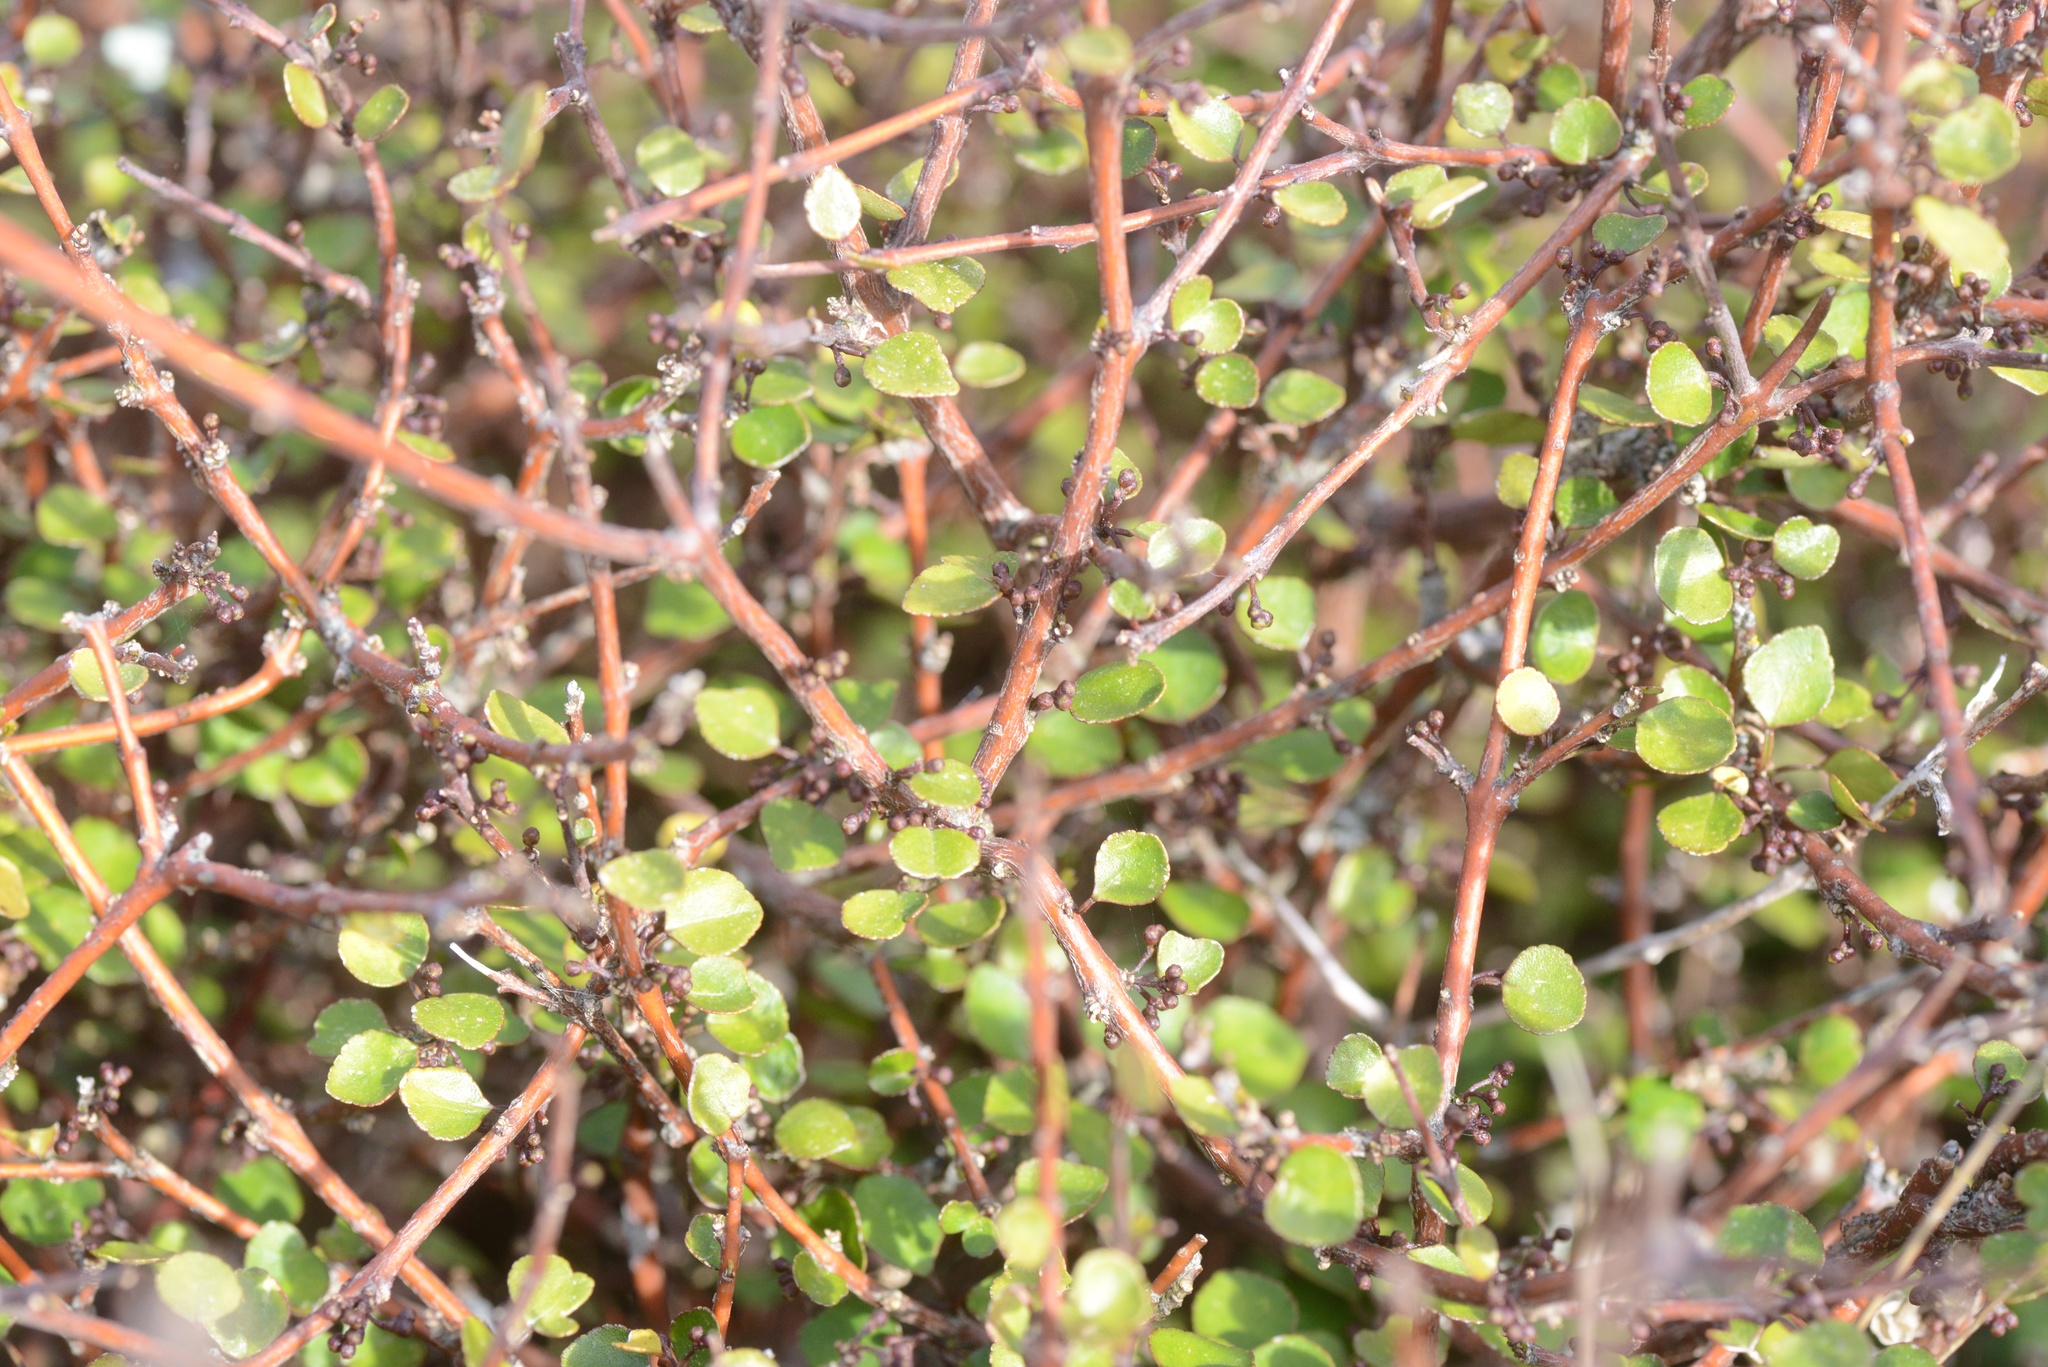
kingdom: Plantae
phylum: Tracheophyta
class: Magnoliopsida
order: Sapindales
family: Rutaceae
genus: Melicope
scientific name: Melicope simplex
